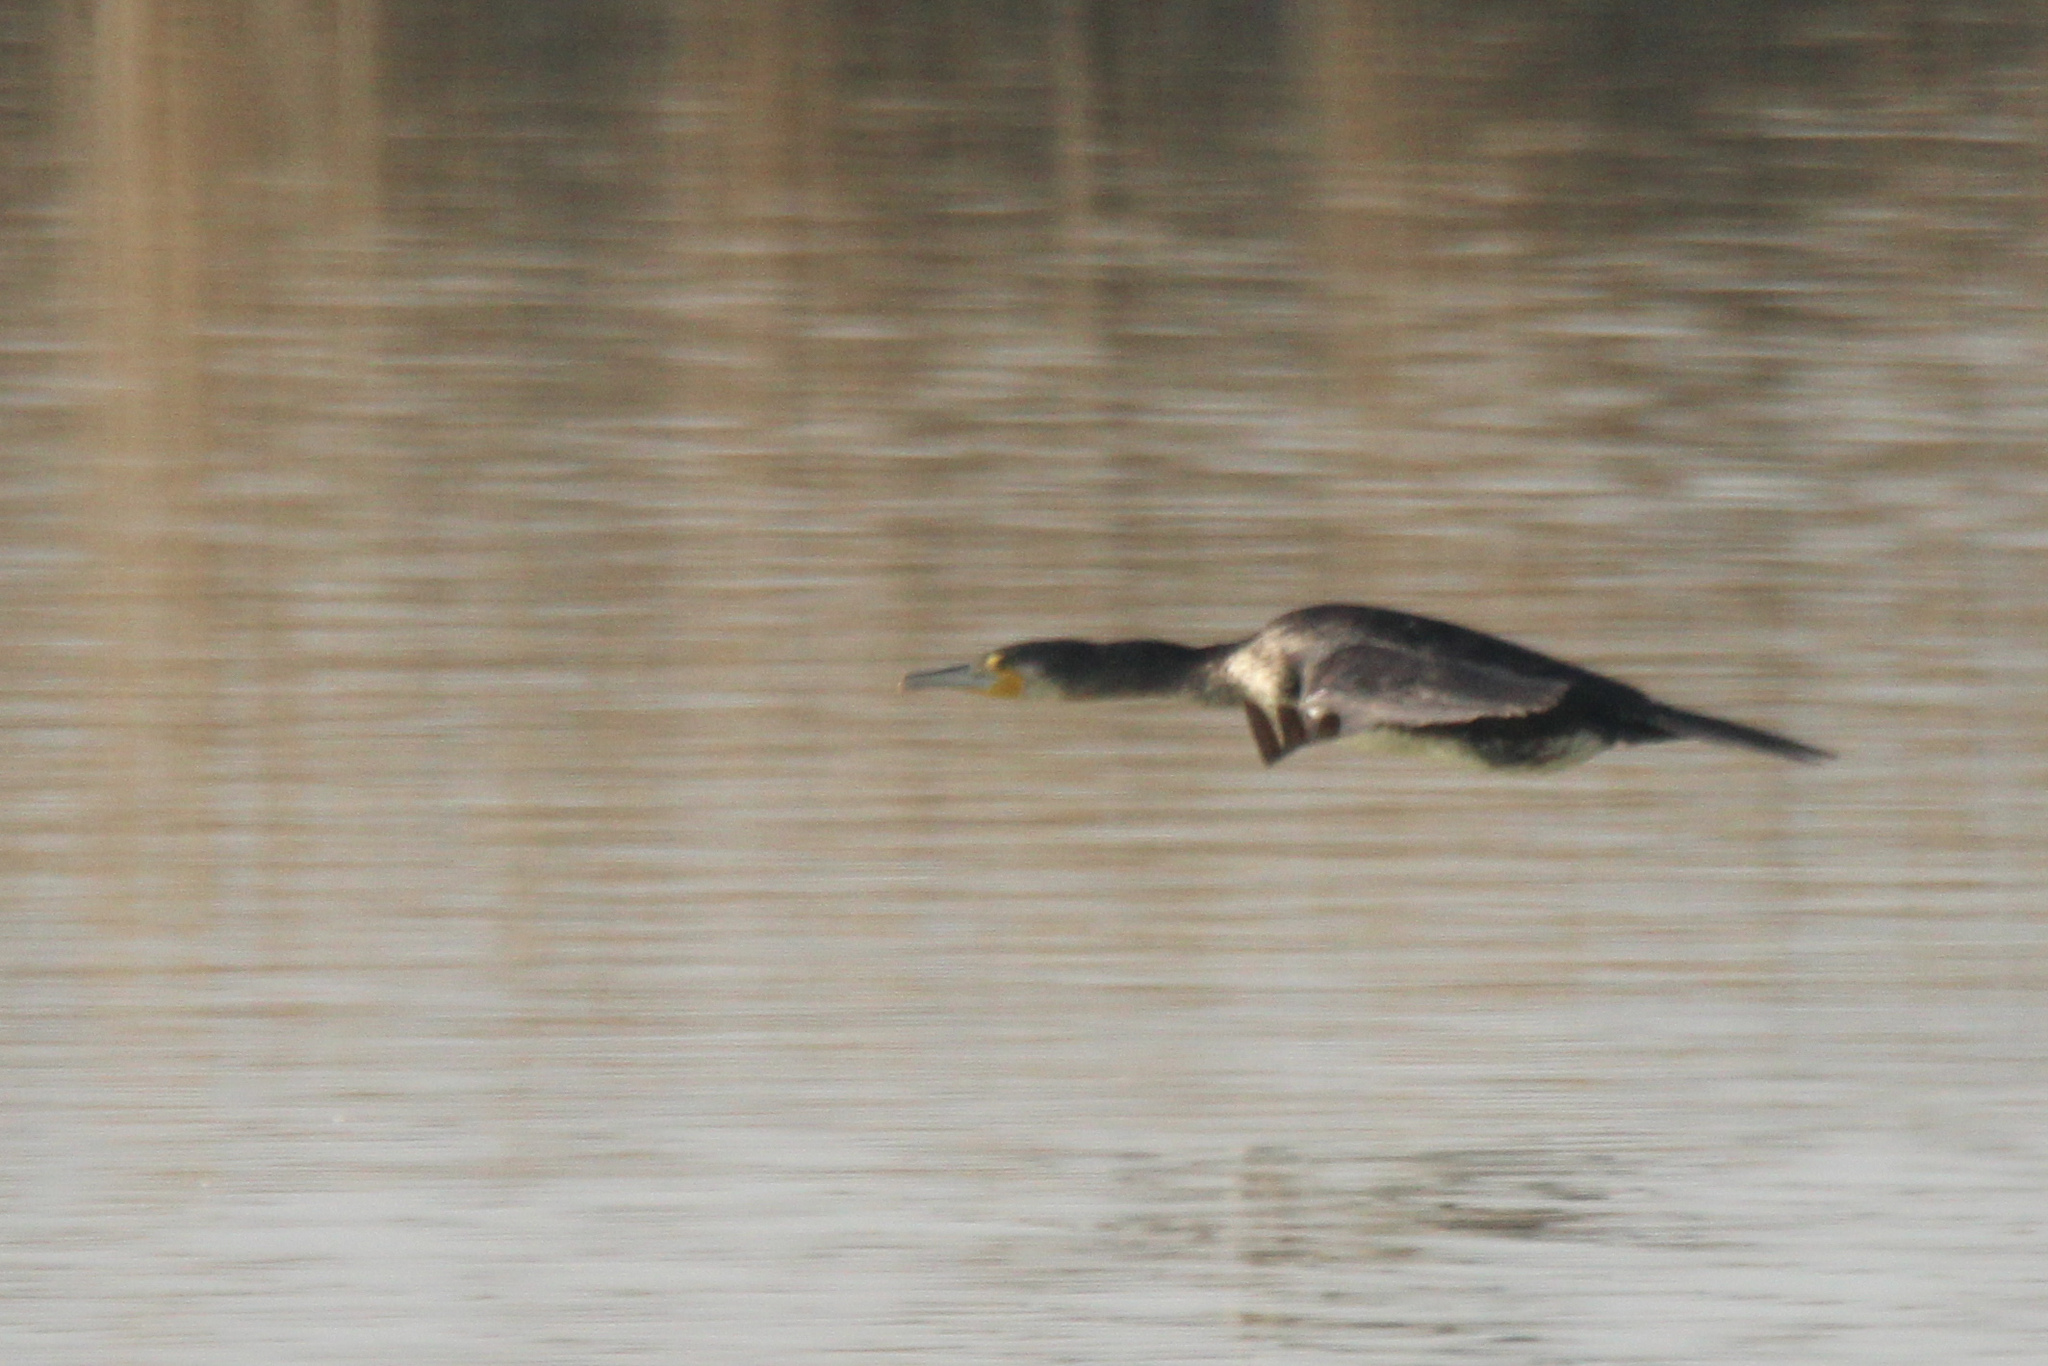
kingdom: Animalia
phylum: Chordata
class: Aves
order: Suliformes
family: Phalacrocoracidae
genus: Phalacrocorax
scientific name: Phalacrocorax carbo
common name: Great cormorant
